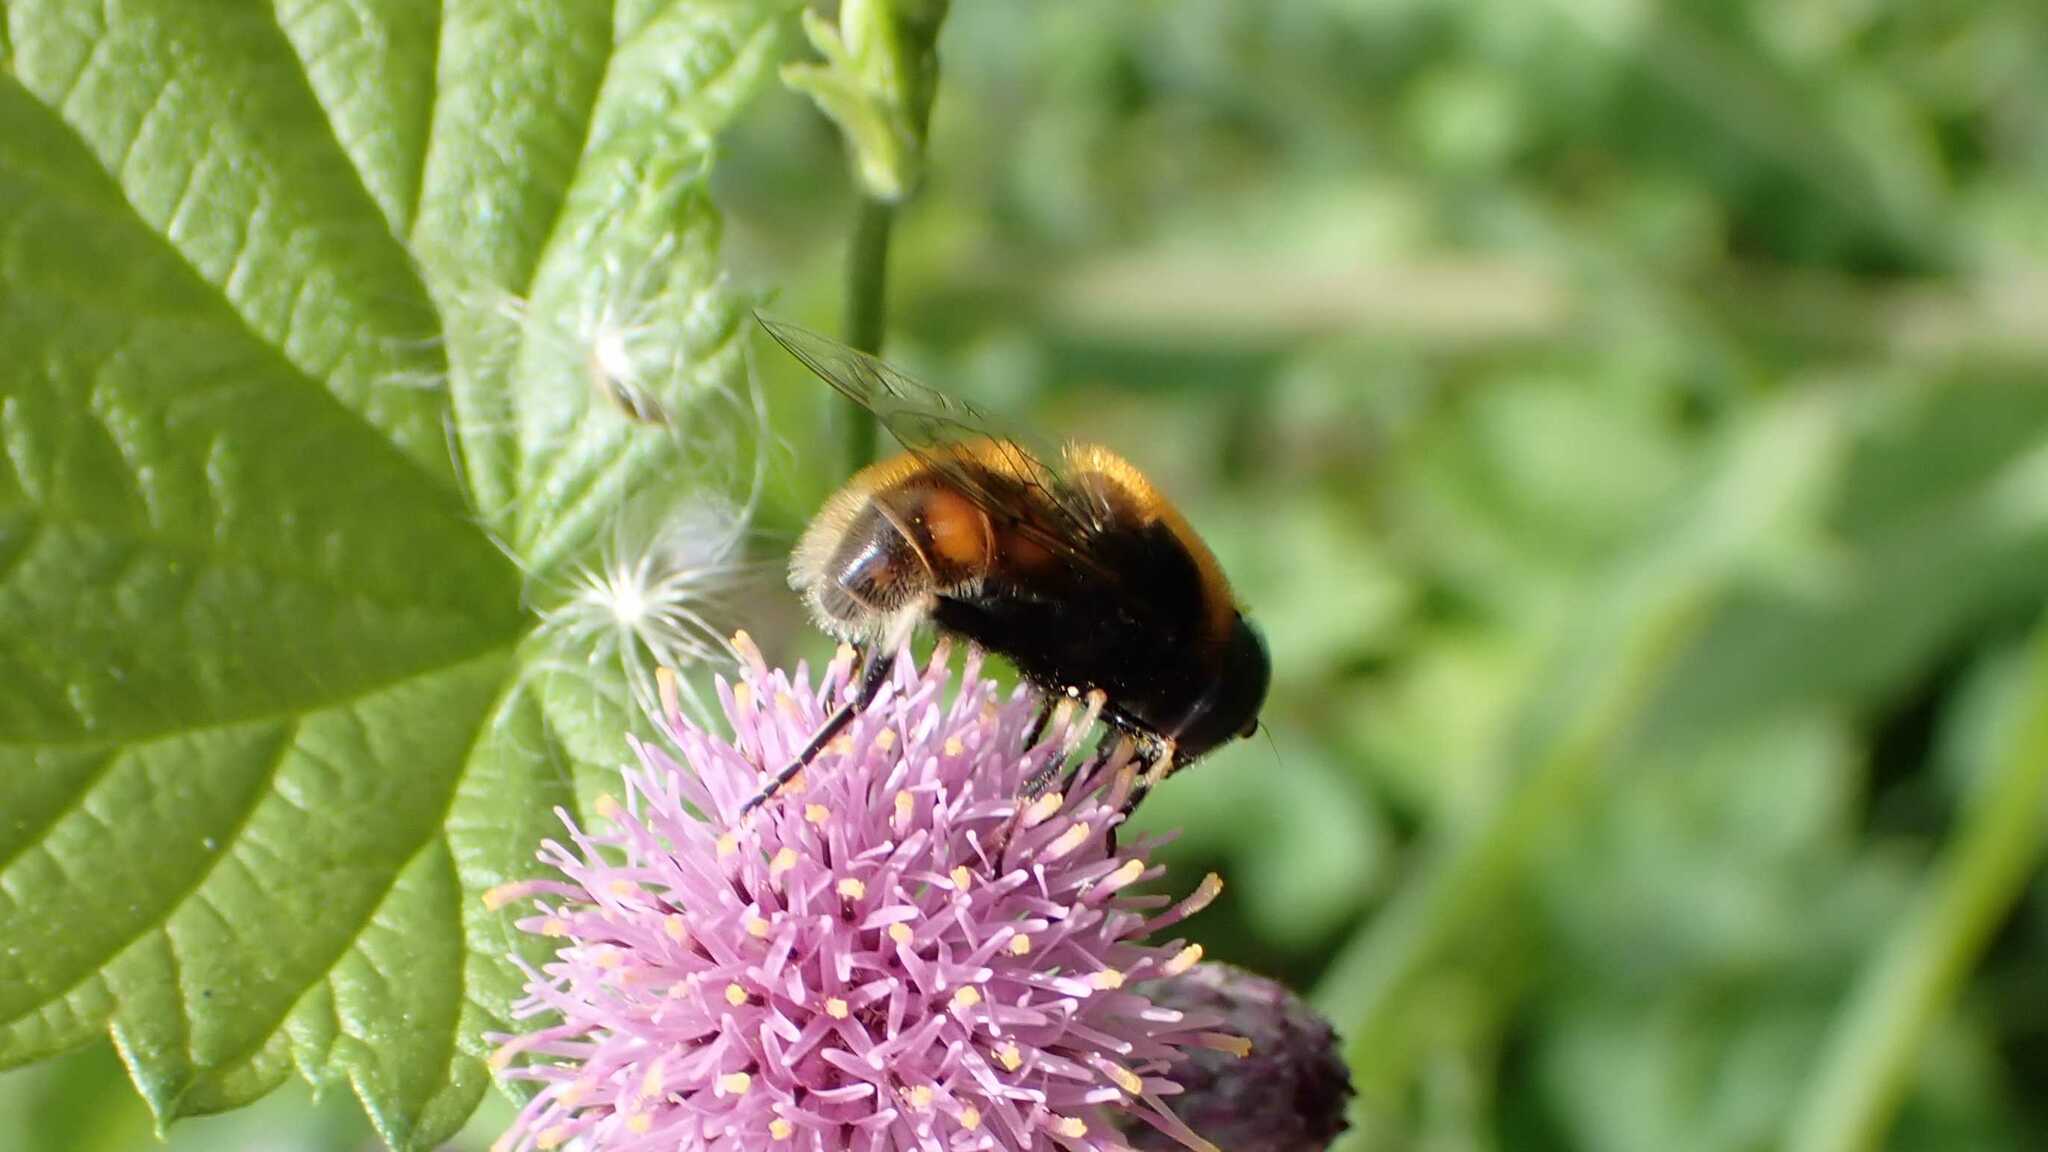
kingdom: Animalia
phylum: Arthropoda
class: Insecta
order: Diptera
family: Syrphidae
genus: Eristalis
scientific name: Eristalis intricaria
